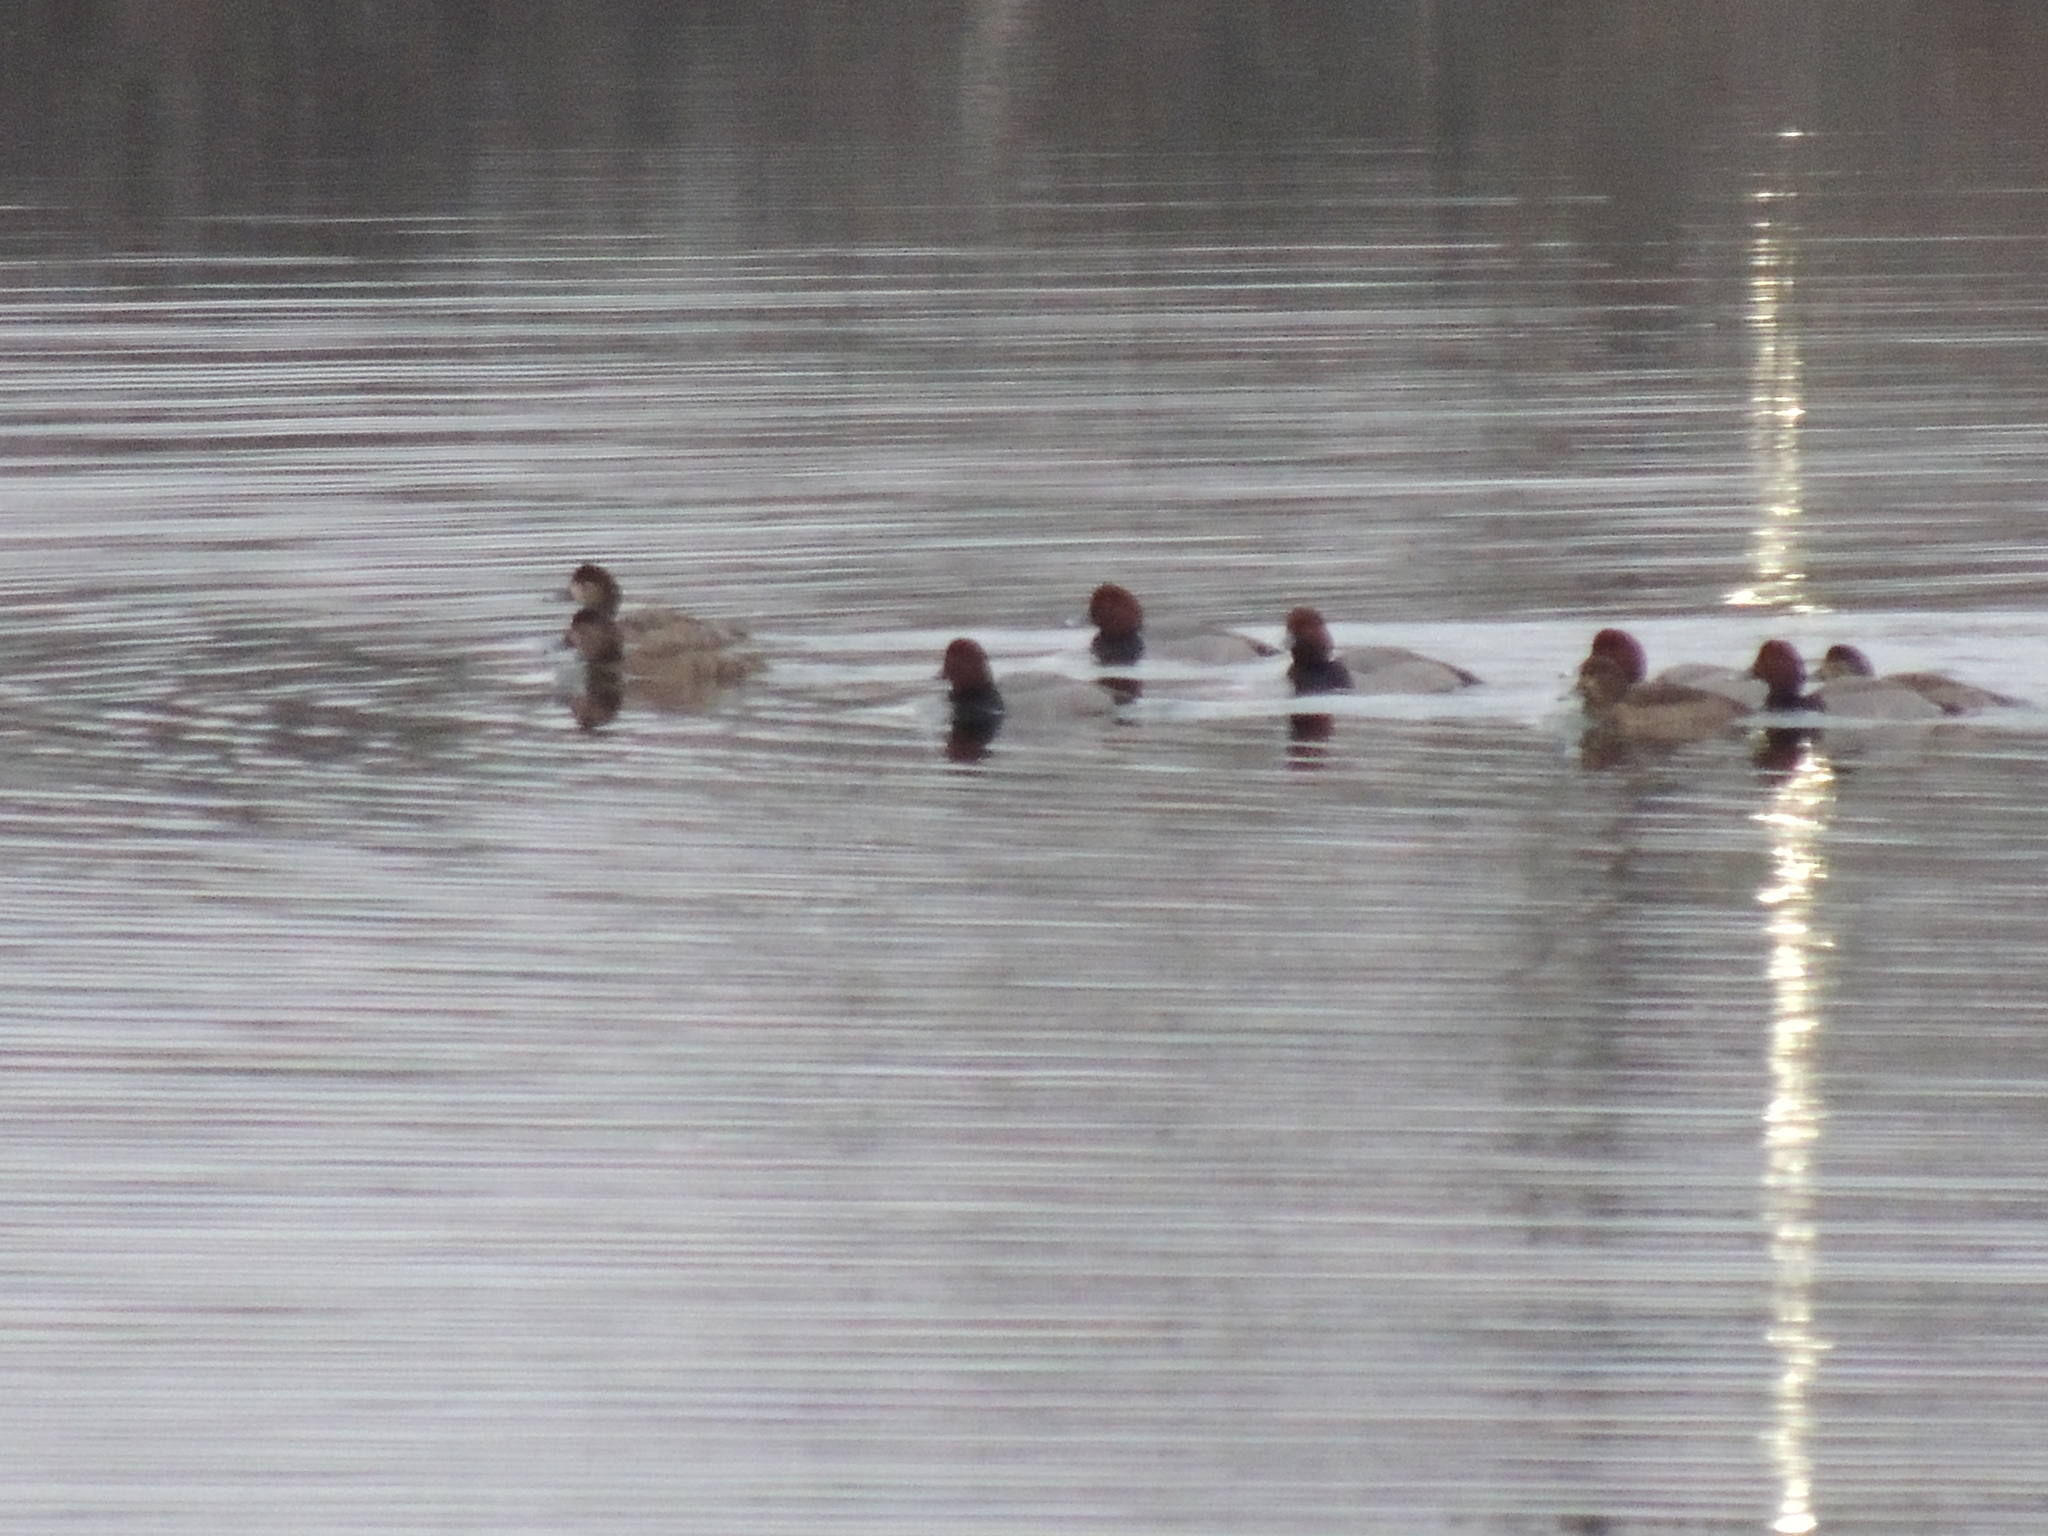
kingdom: Animalia
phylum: Chordata
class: Aves
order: Anseriformes
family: Anatidae
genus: Aythya
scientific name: Aythya americana
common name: Redhead
